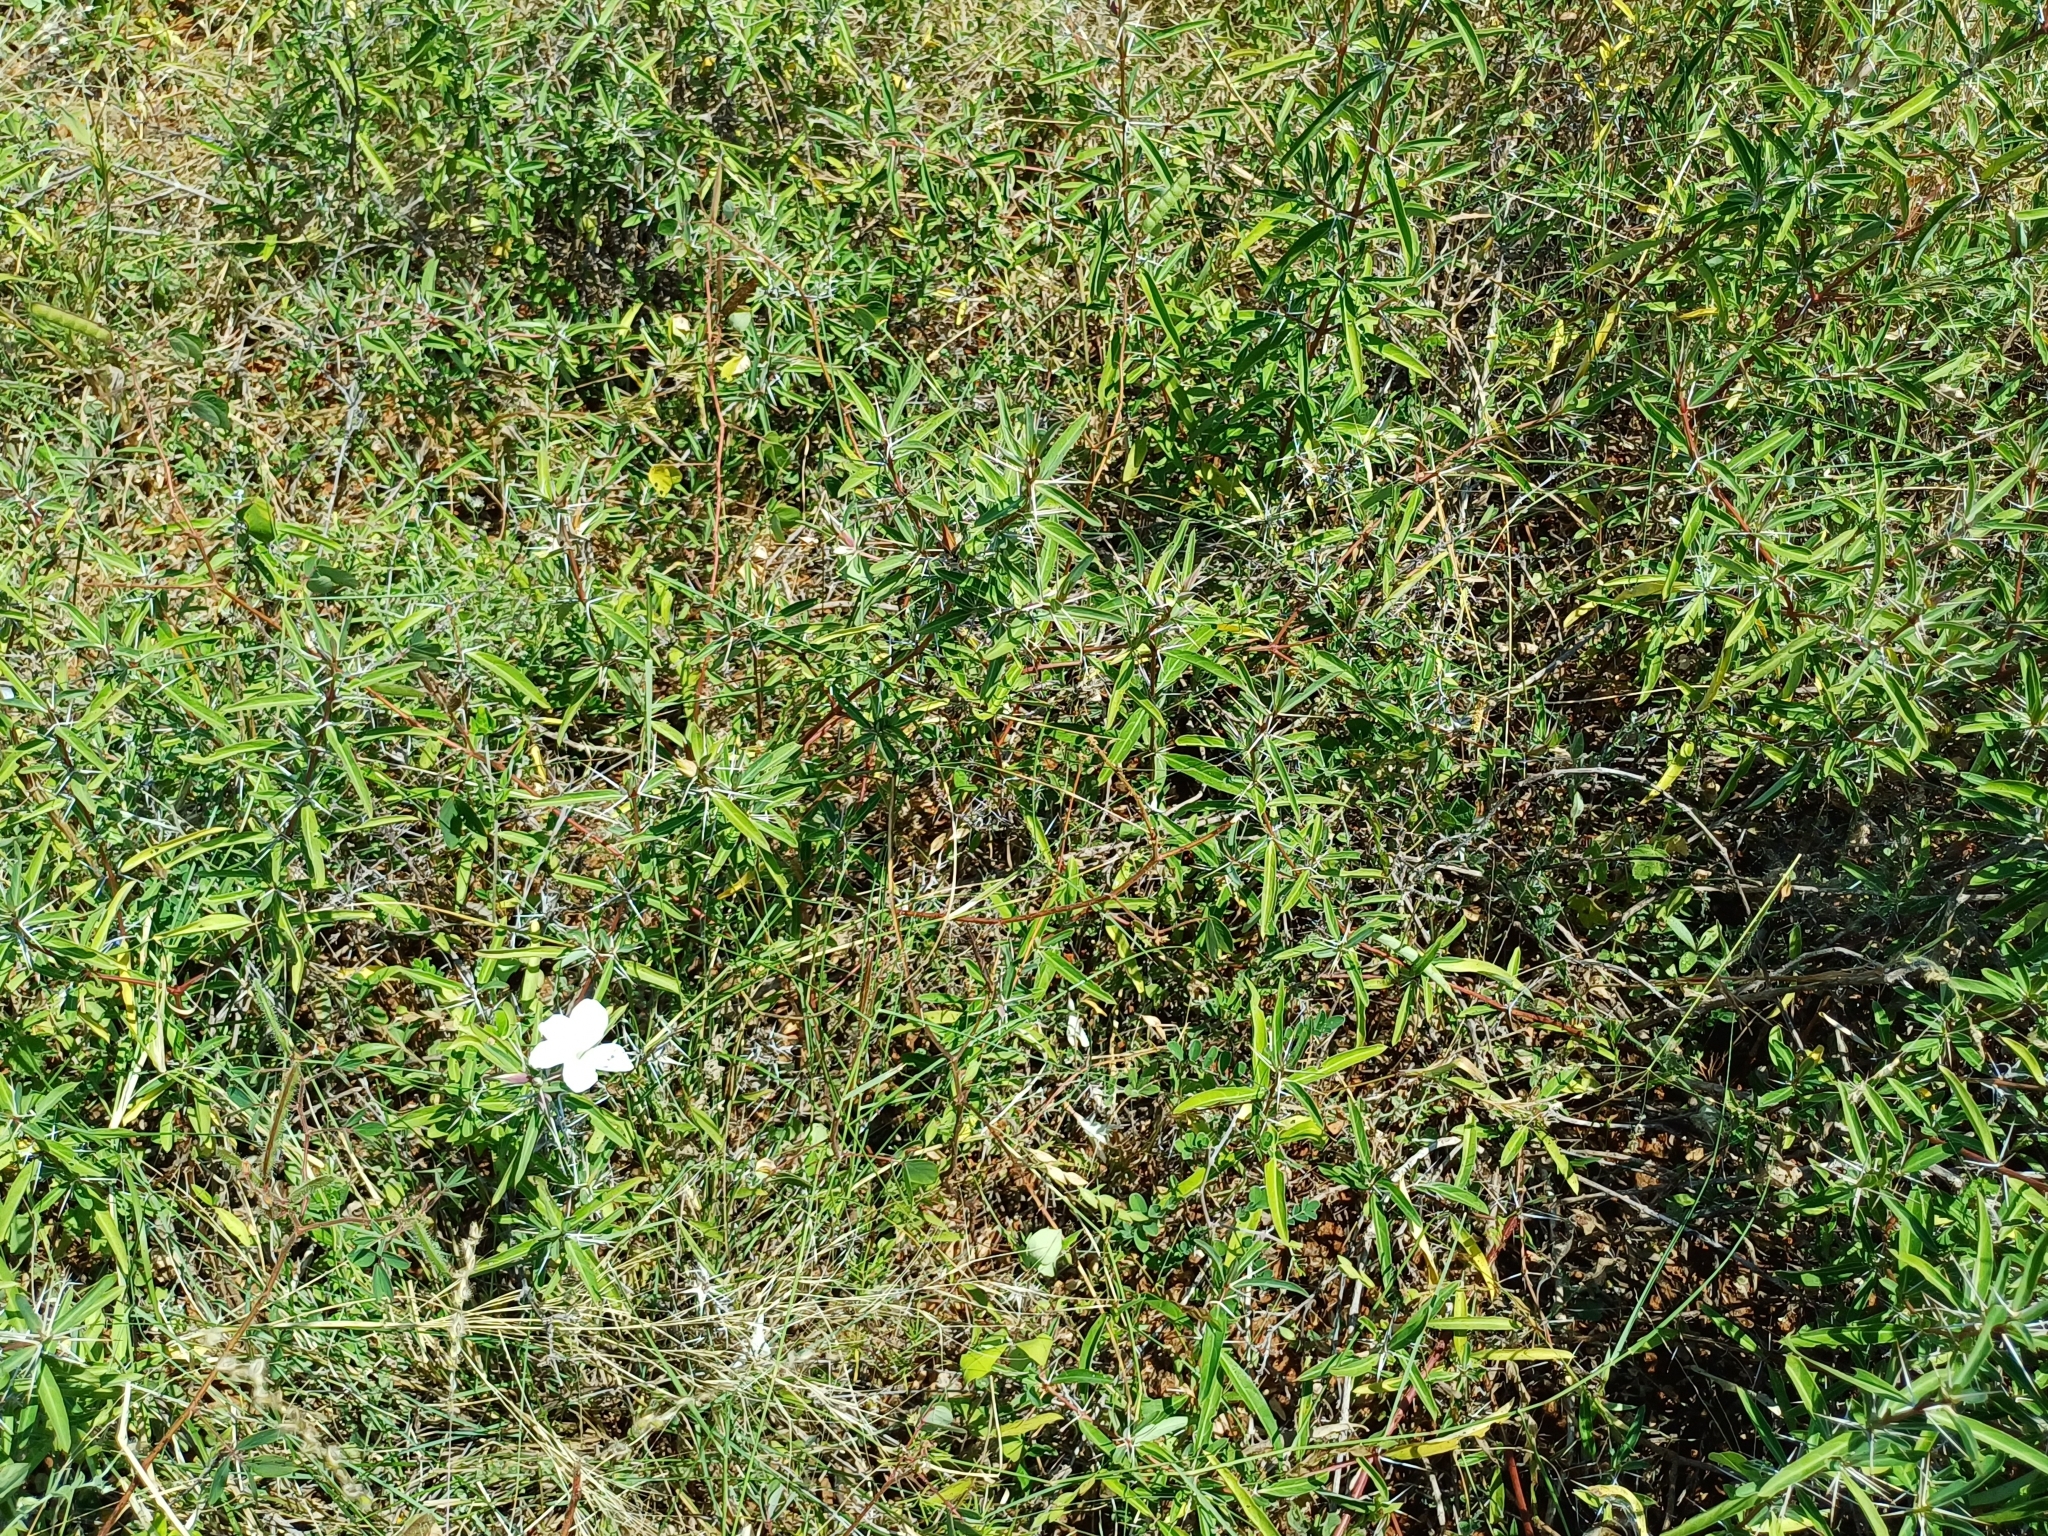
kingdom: Plantae
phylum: Tracheophyta
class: Magnoliopsida
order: Lamiales
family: Acanthaceae
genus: Barleria
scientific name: Barleria cuspidata
